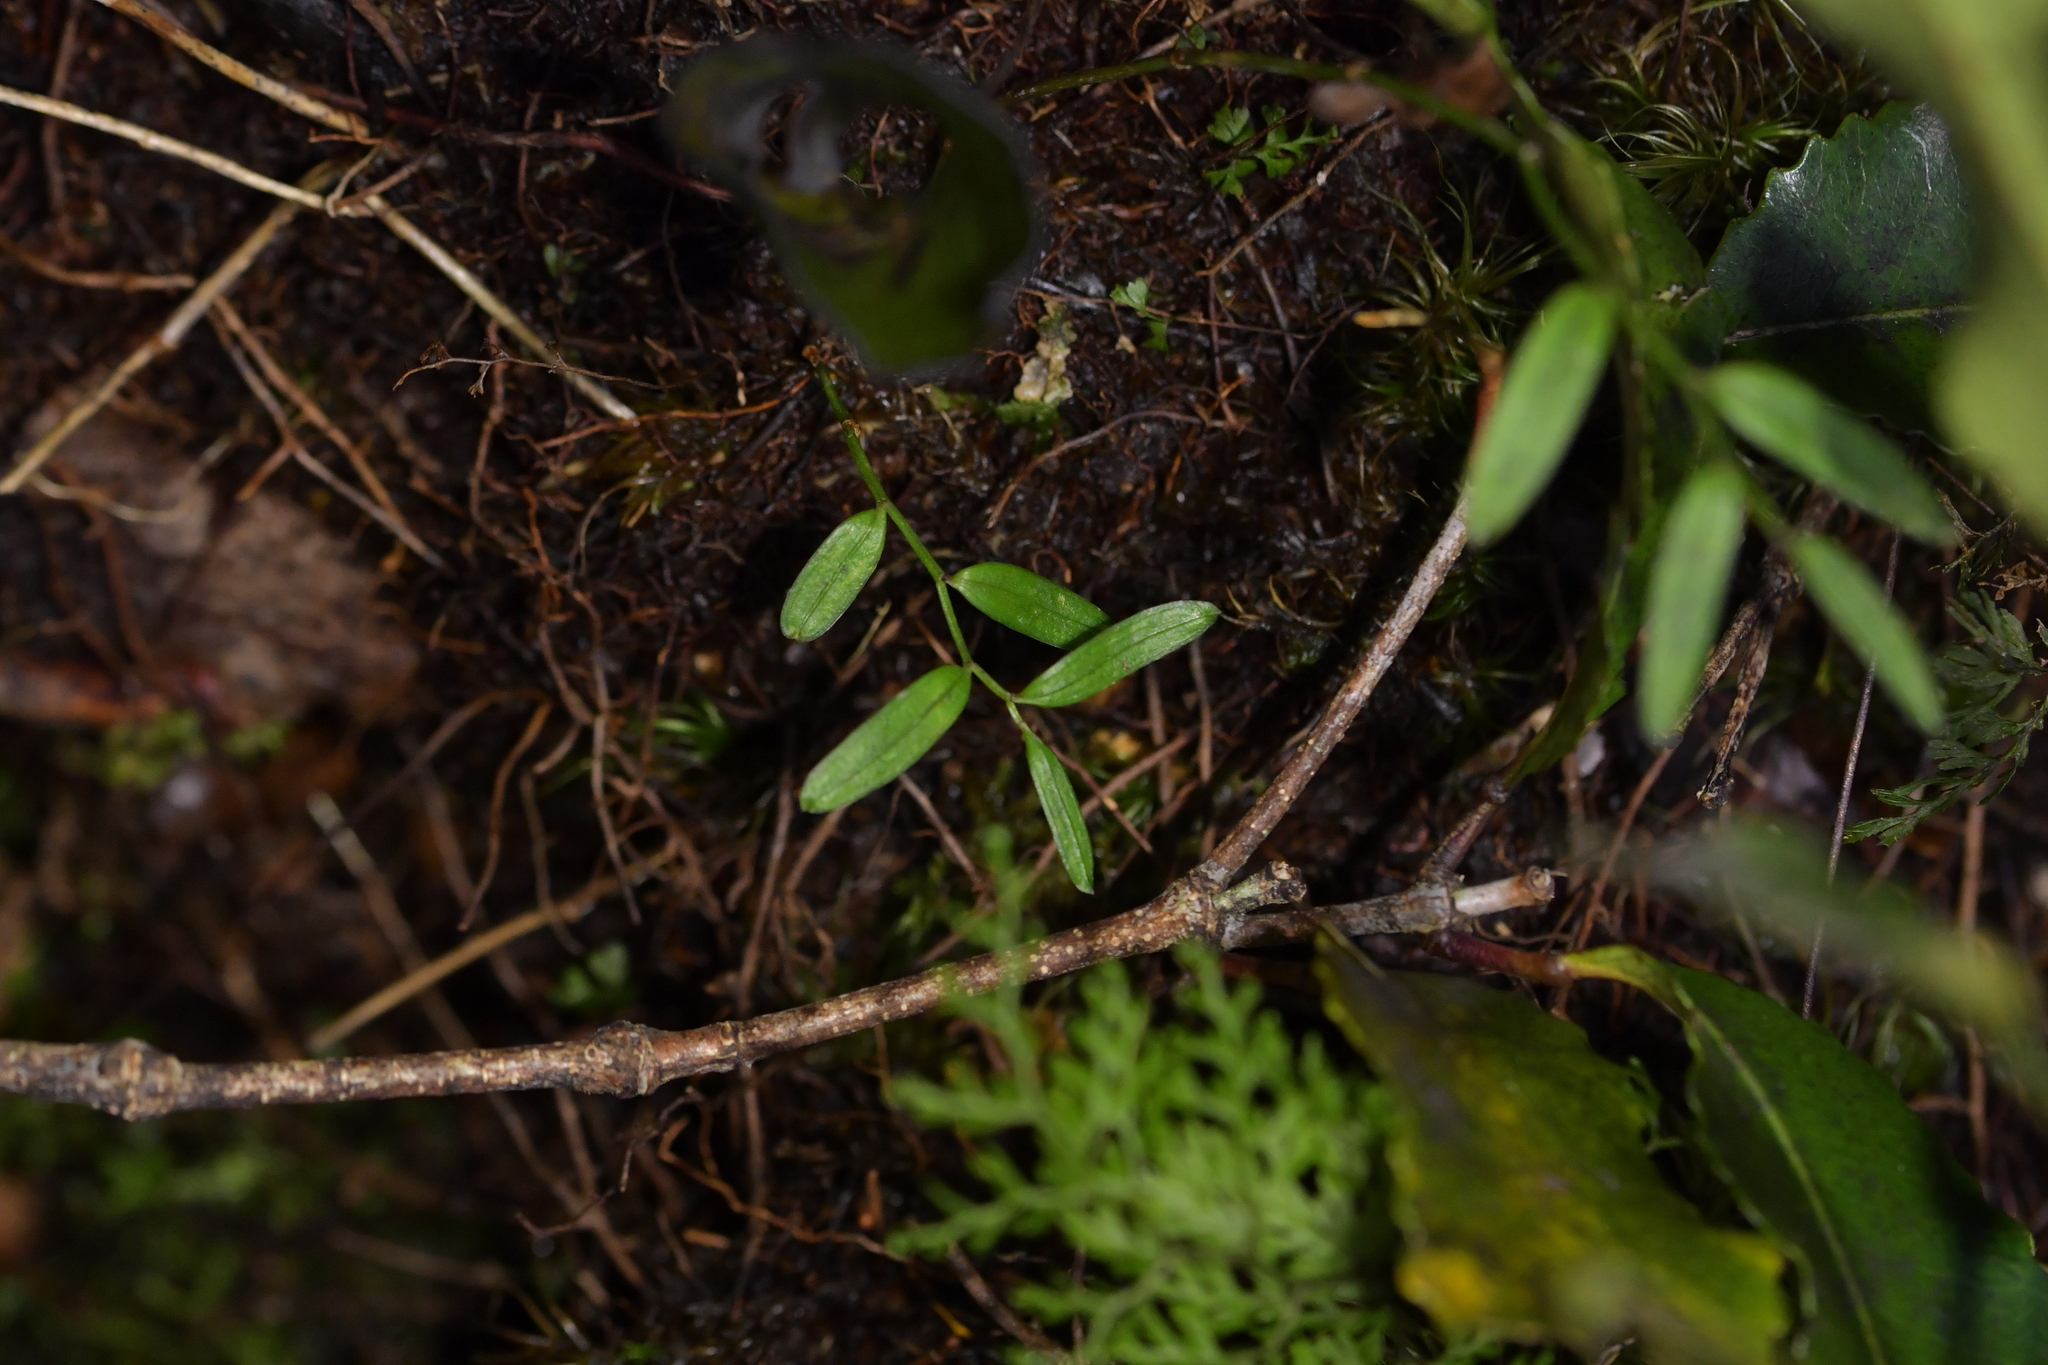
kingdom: Plantae
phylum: Tracheophyta
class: Liliopsida
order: Liliales
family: Alstroemeriaceae
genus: Luzuriaga
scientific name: Luzuriaga parviflora
